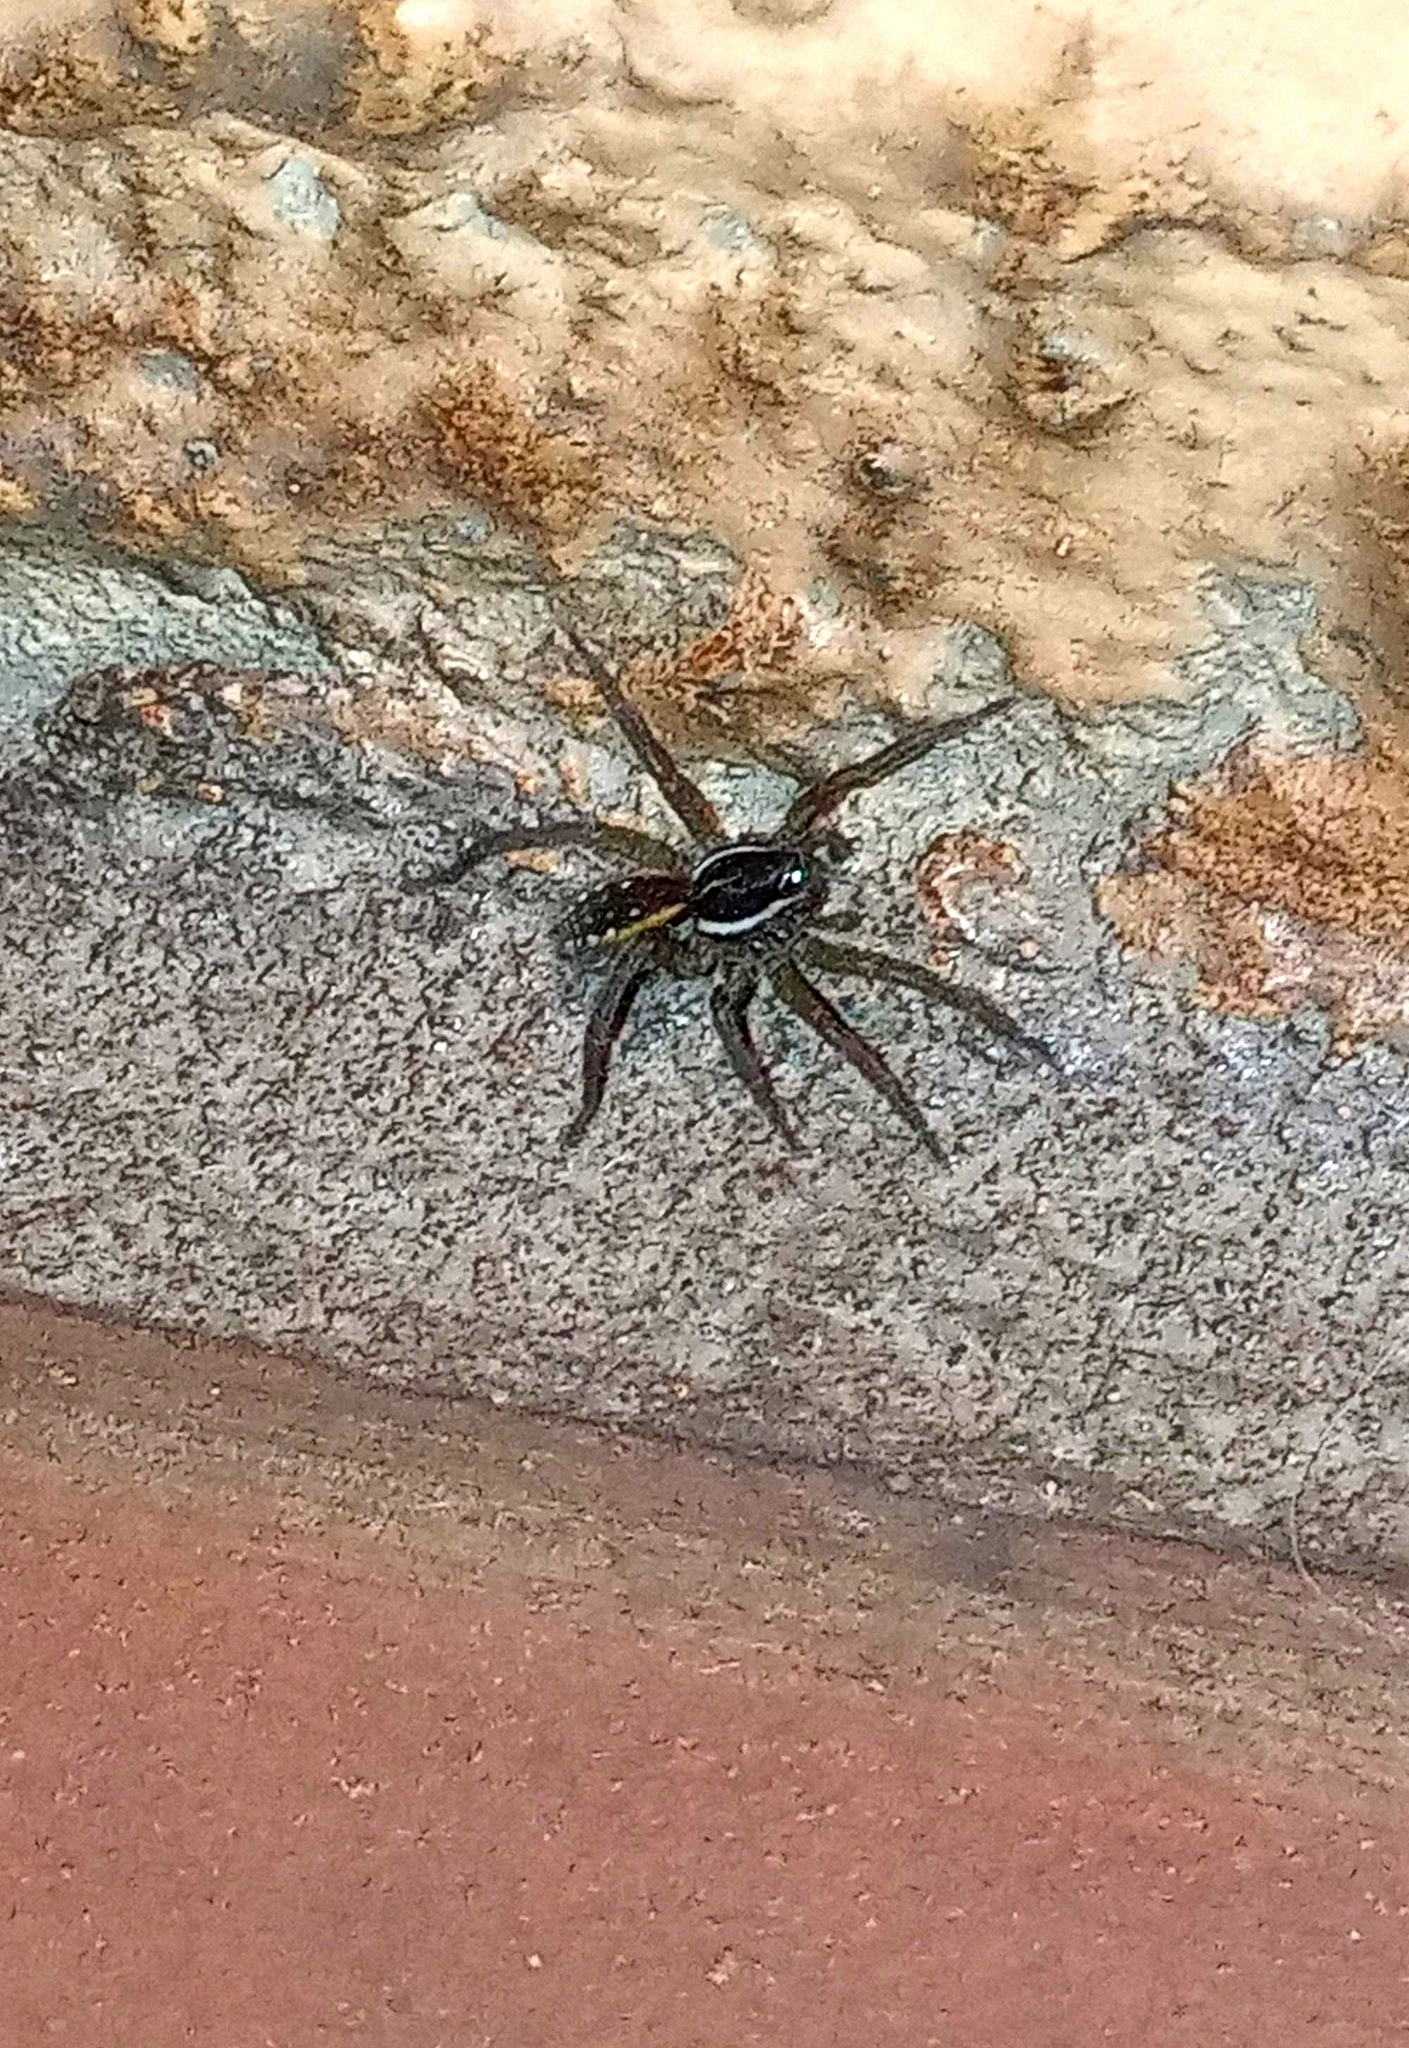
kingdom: Animalia
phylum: Arthropoda
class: Arachnida
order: Araneae
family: Lycosidae
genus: Diapontia
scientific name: Diapontia uruguayensis
